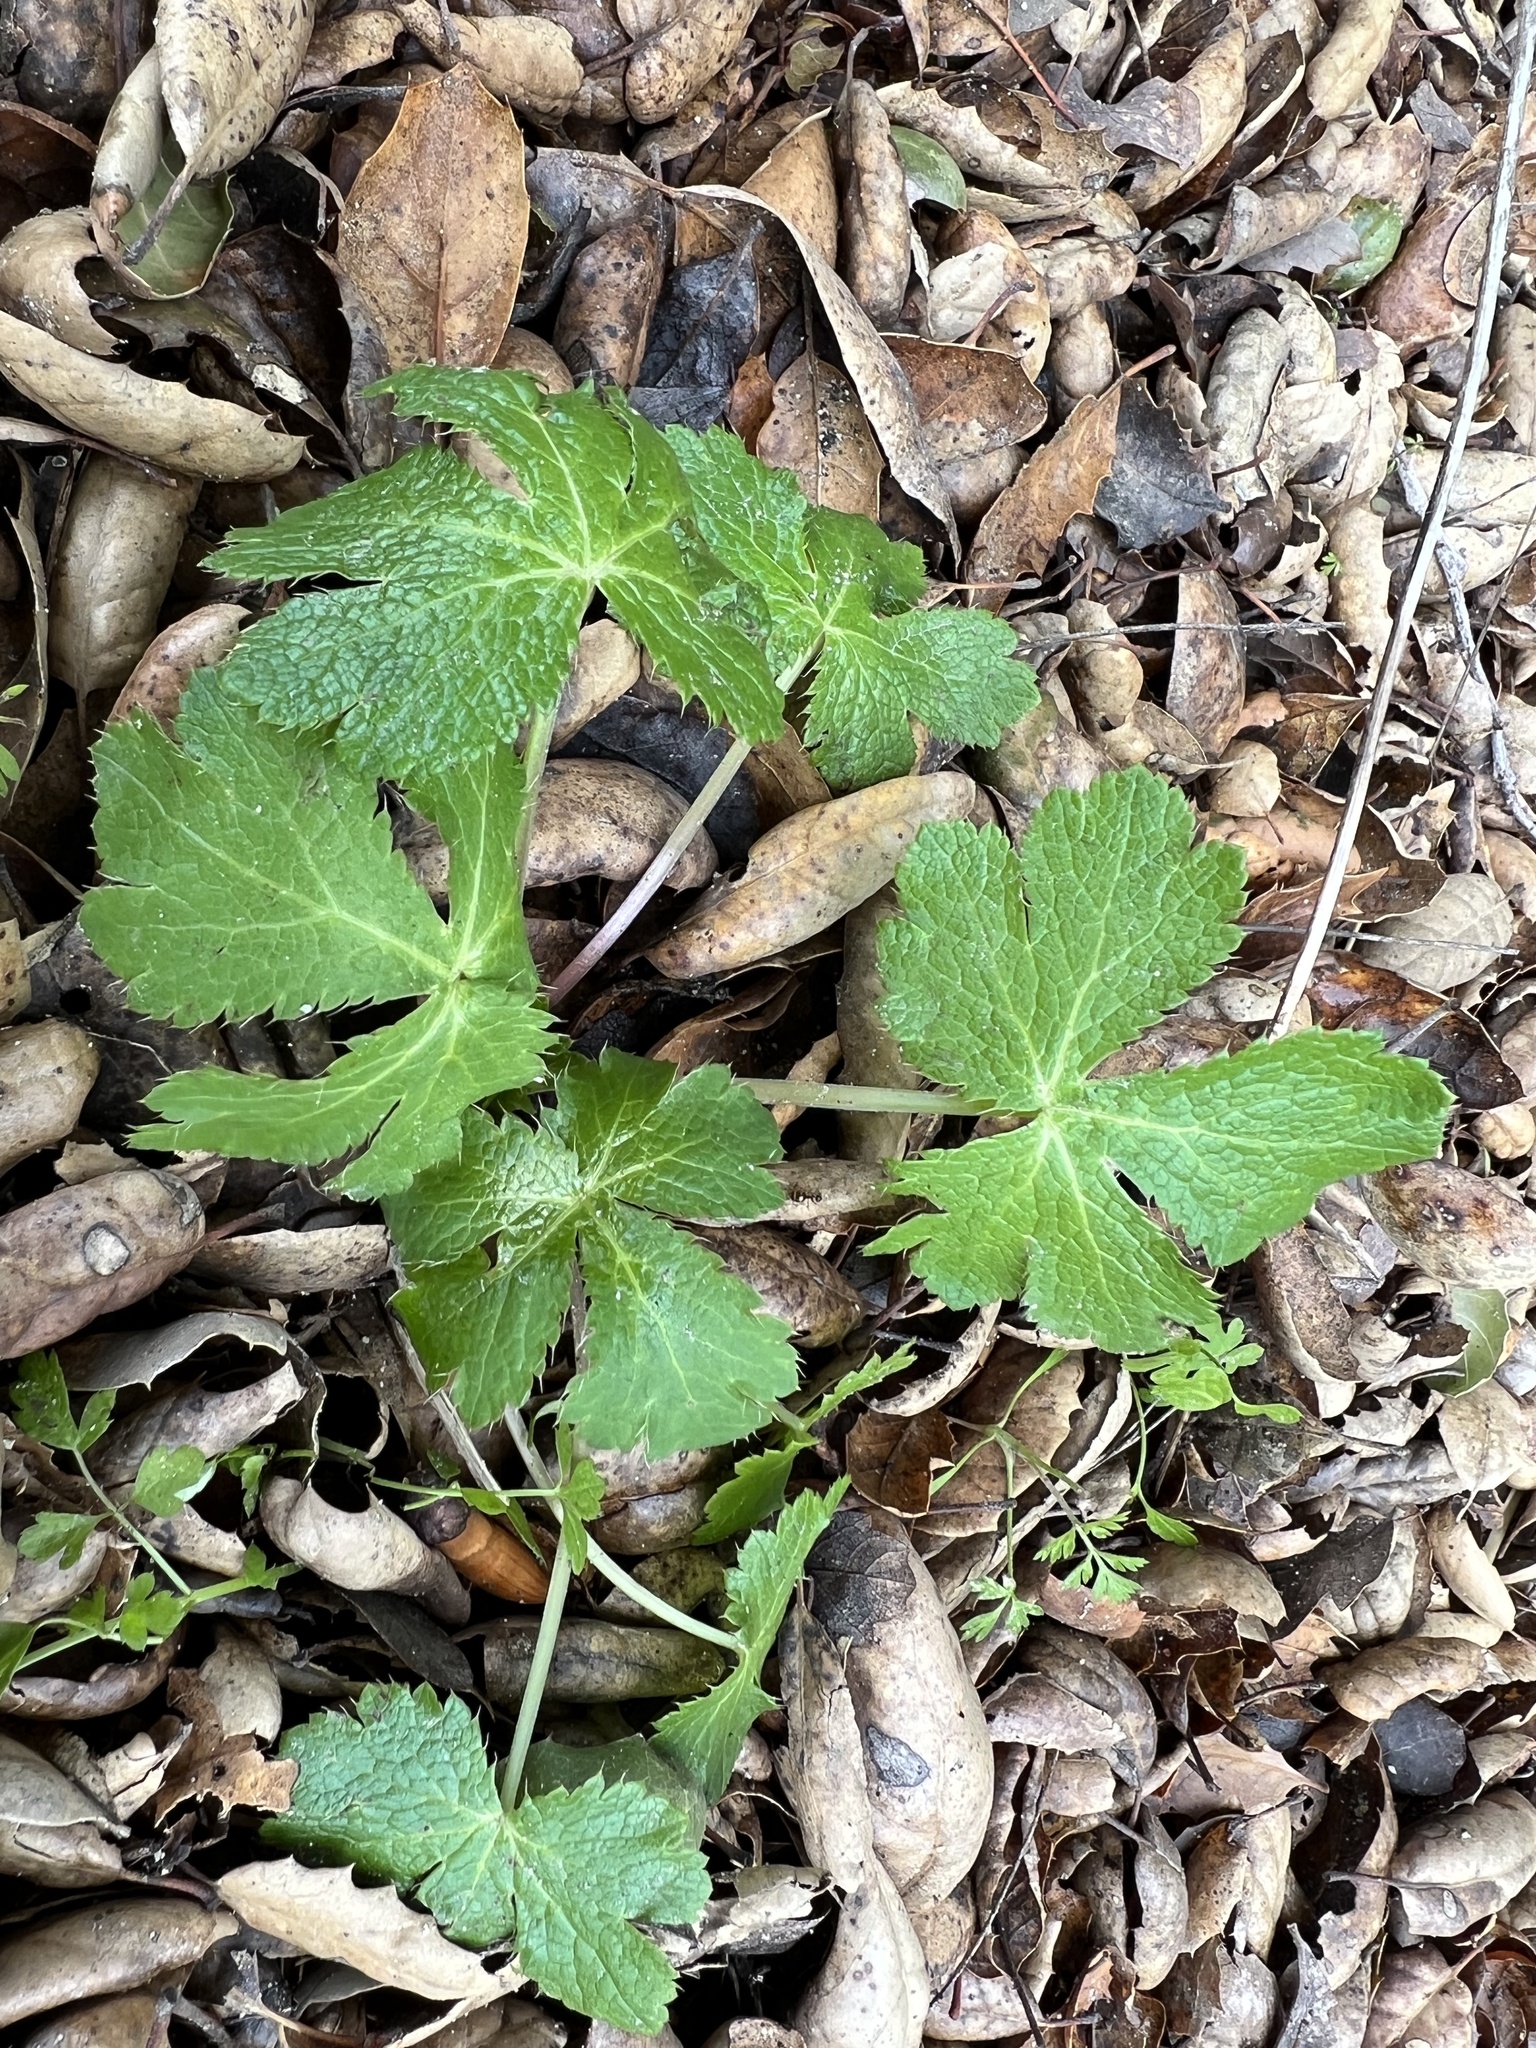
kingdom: Plantae
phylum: Tracheophyta
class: Magnoliopsida
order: Apiales
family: Apiaceae
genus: Sanicula
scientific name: Sanicula crassicaulis
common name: Western snakeroot
